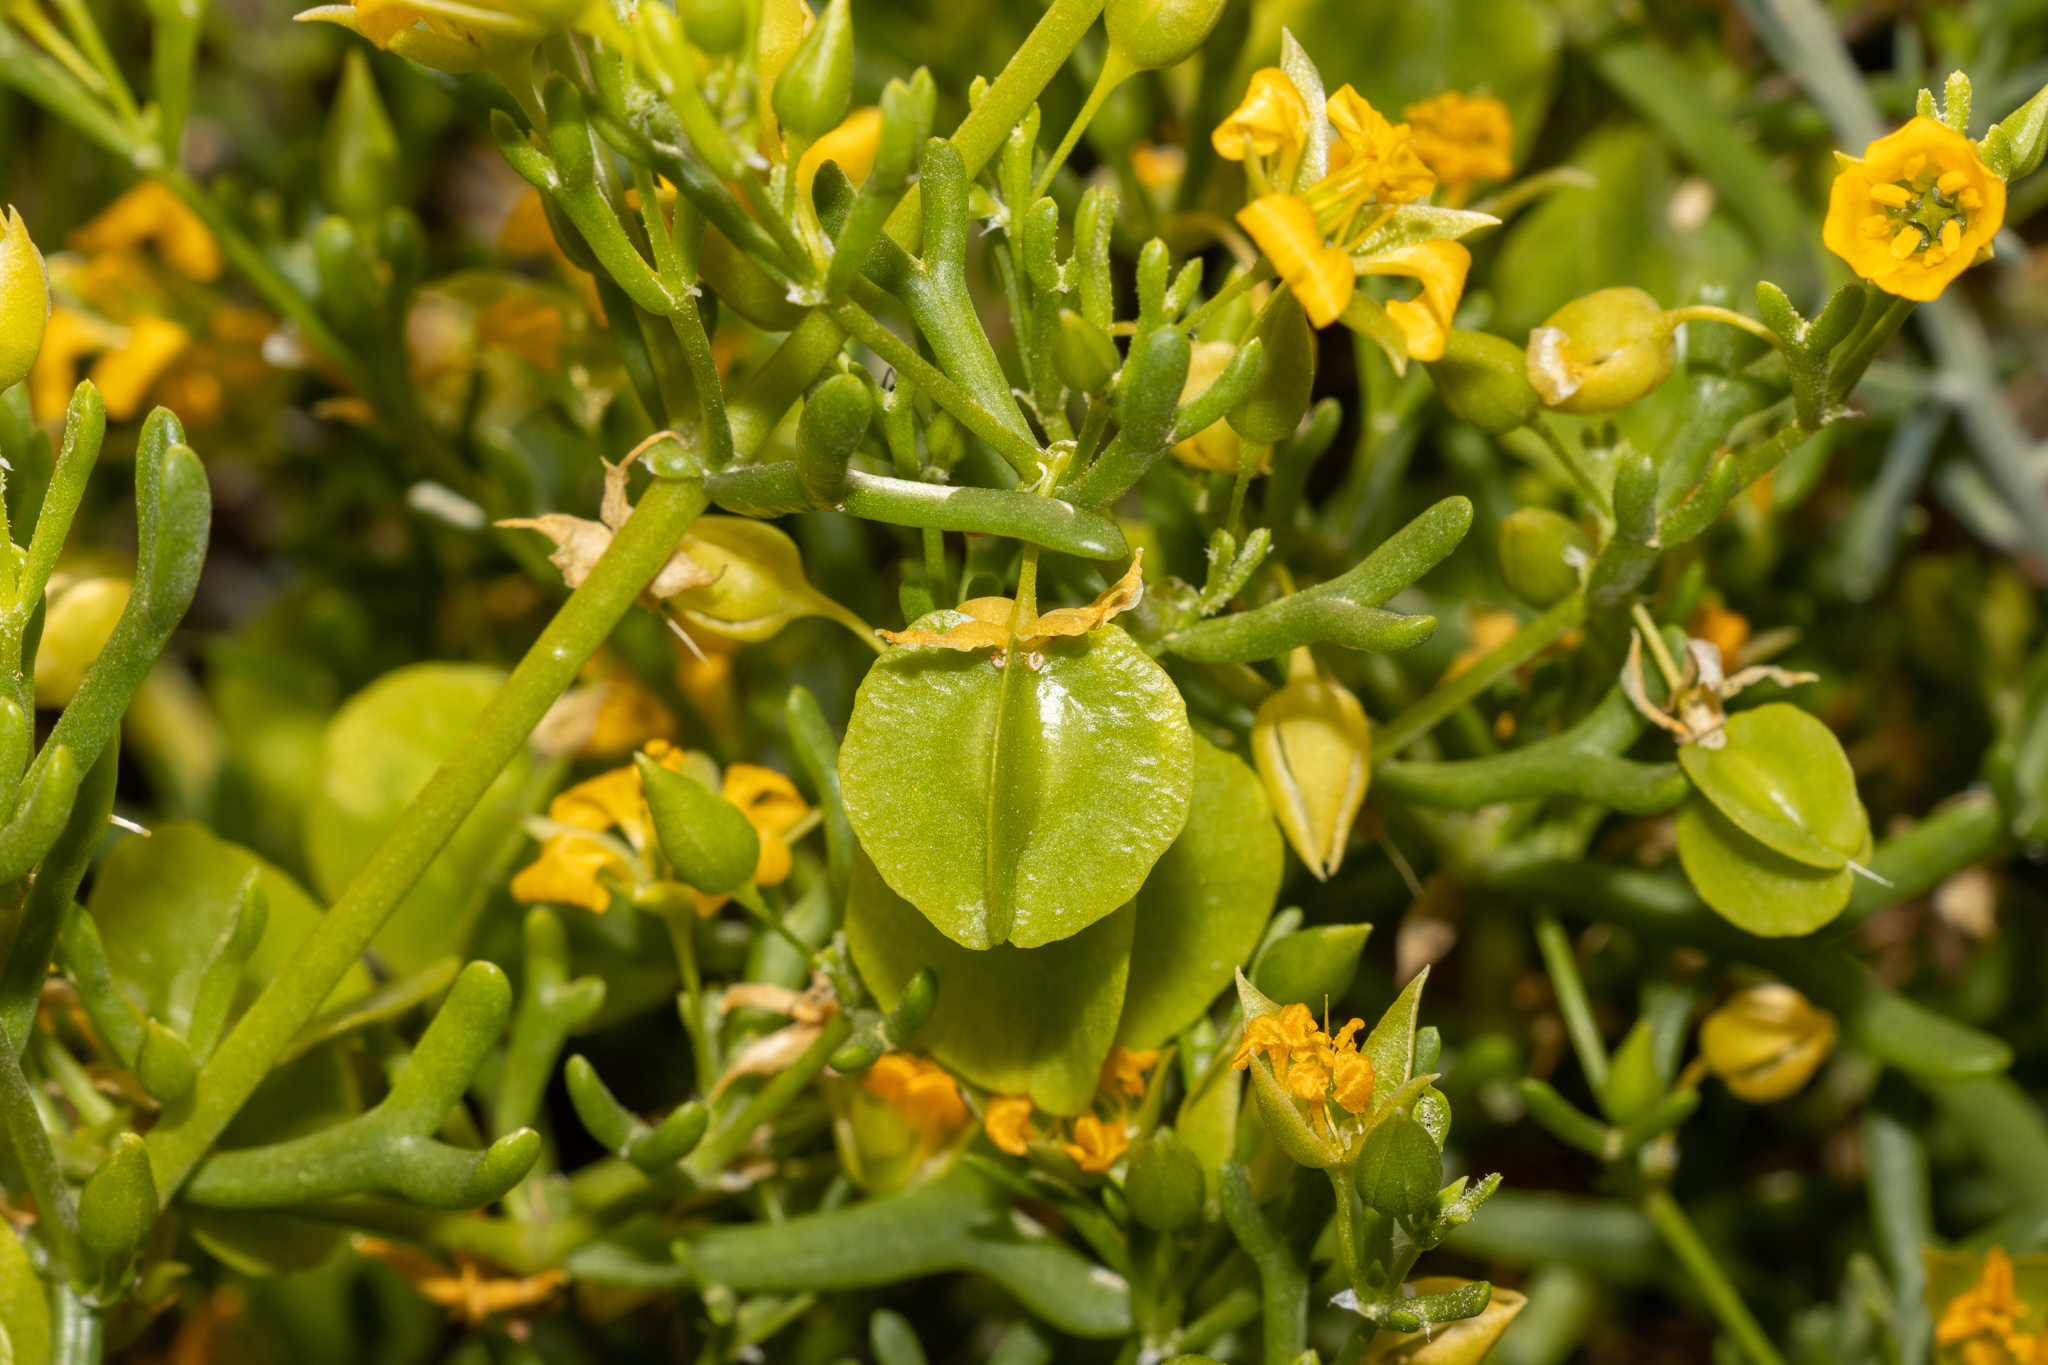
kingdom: Plantae
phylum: Tracheophyta
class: Magnoliopsida
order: Zygophyllales
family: Zygophyllaceae
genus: Roepera
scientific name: Roepera aurantiaca
